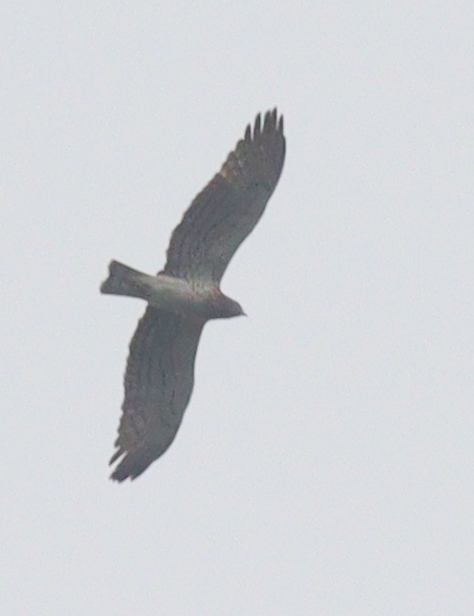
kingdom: Animalia
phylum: Chordata
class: Aves
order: Accipitriformes
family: Accipitridae
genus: Circaetus
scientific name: Circaetus gallicus
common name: Short-toed snake eagle
